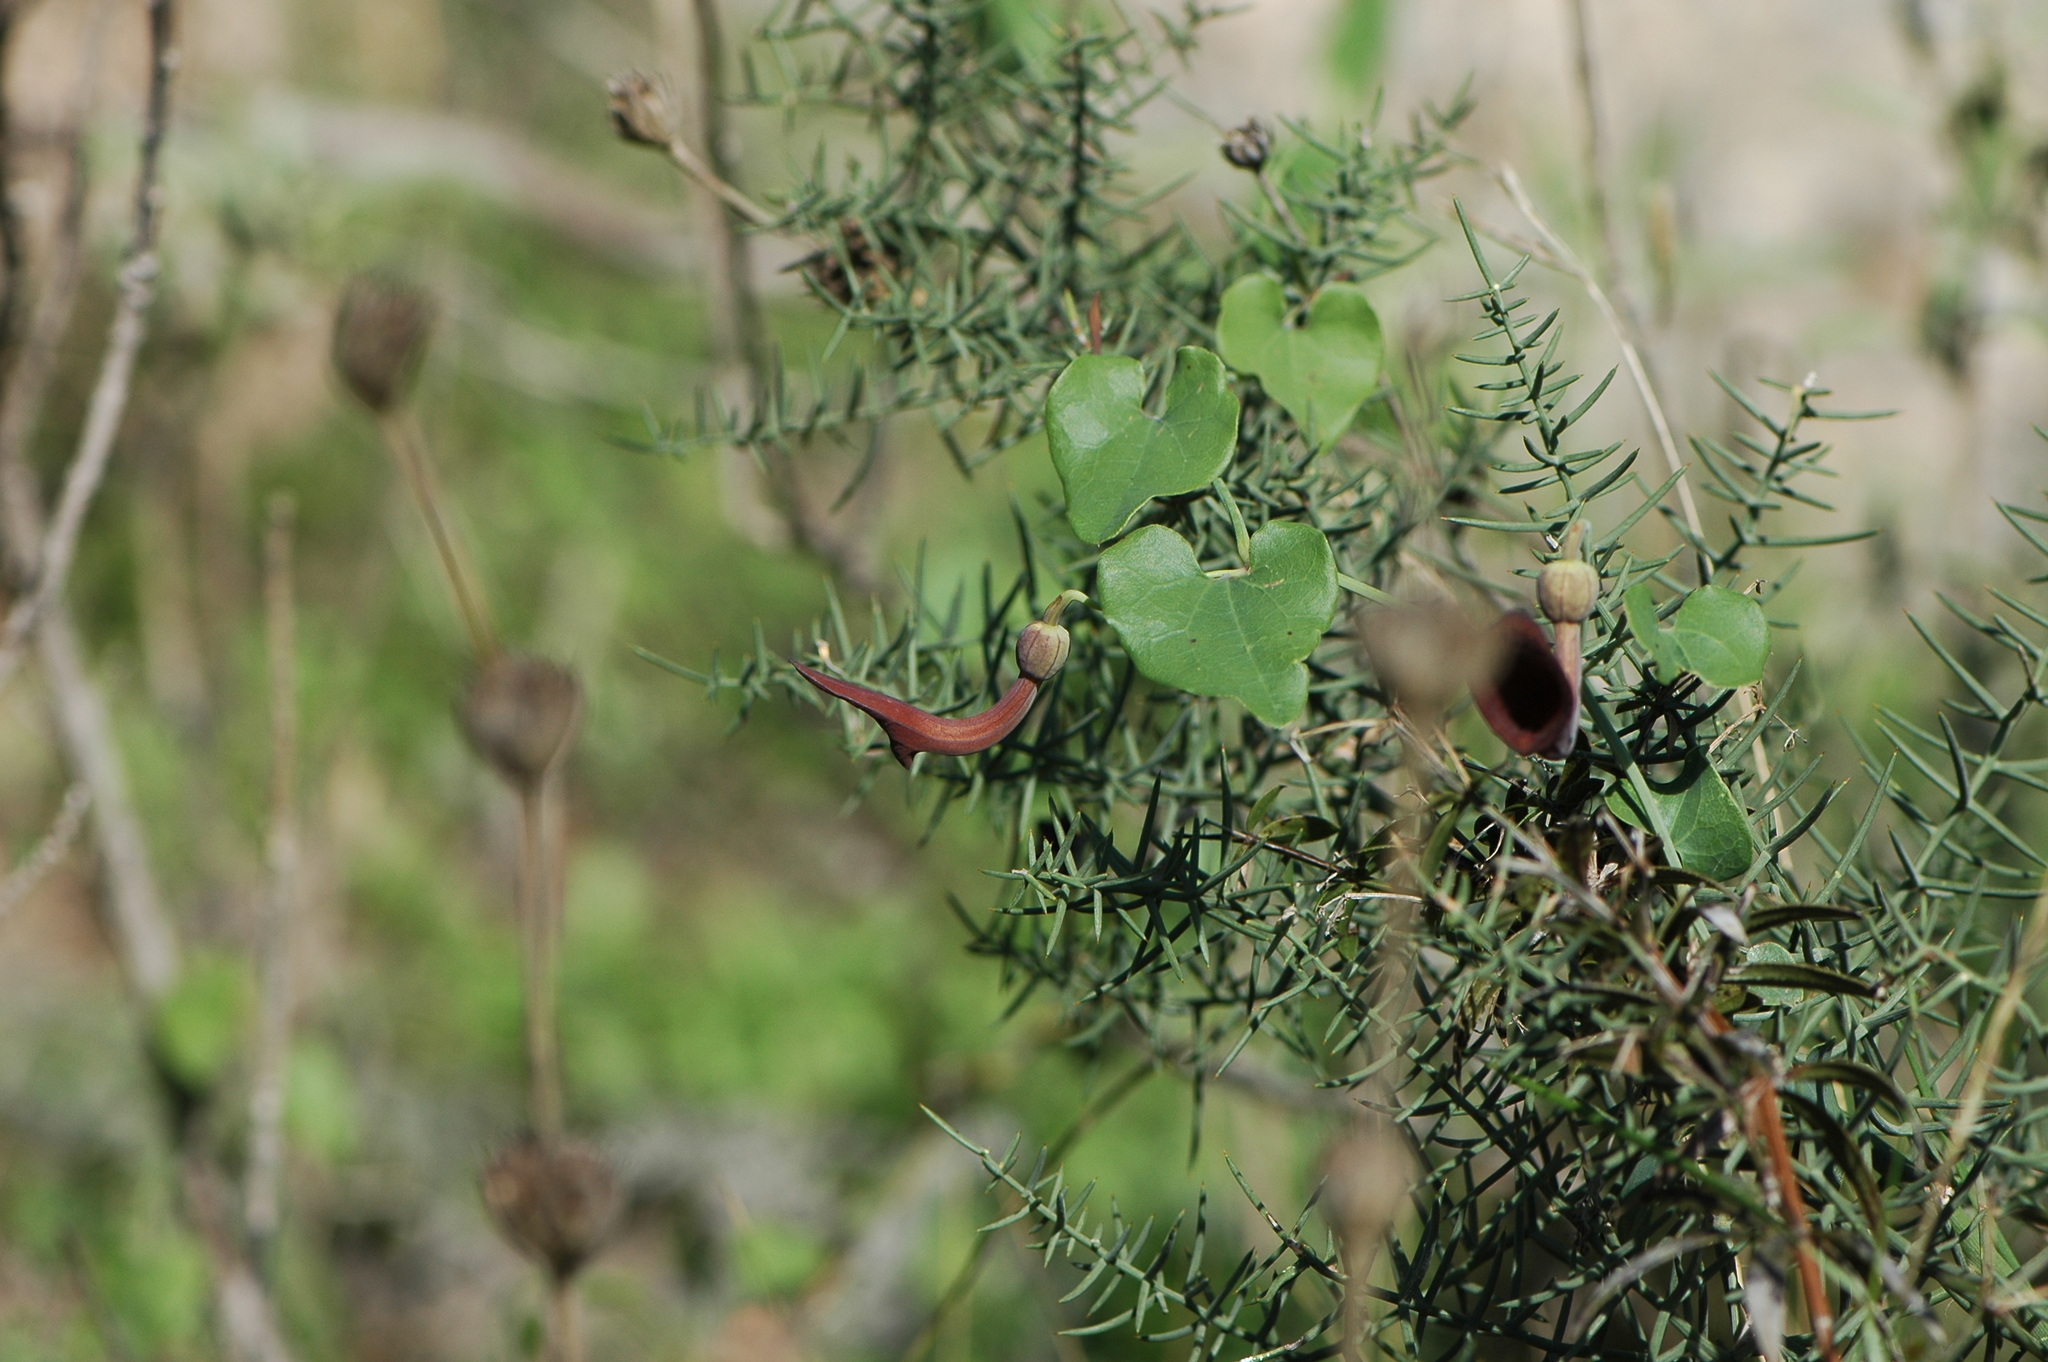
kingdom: Plantae
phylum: Tracheophyta
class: Magnoliopsida
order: Piperales
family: Aristolochiaceae
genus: Aristolochia
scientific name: Aristolochia baetica
